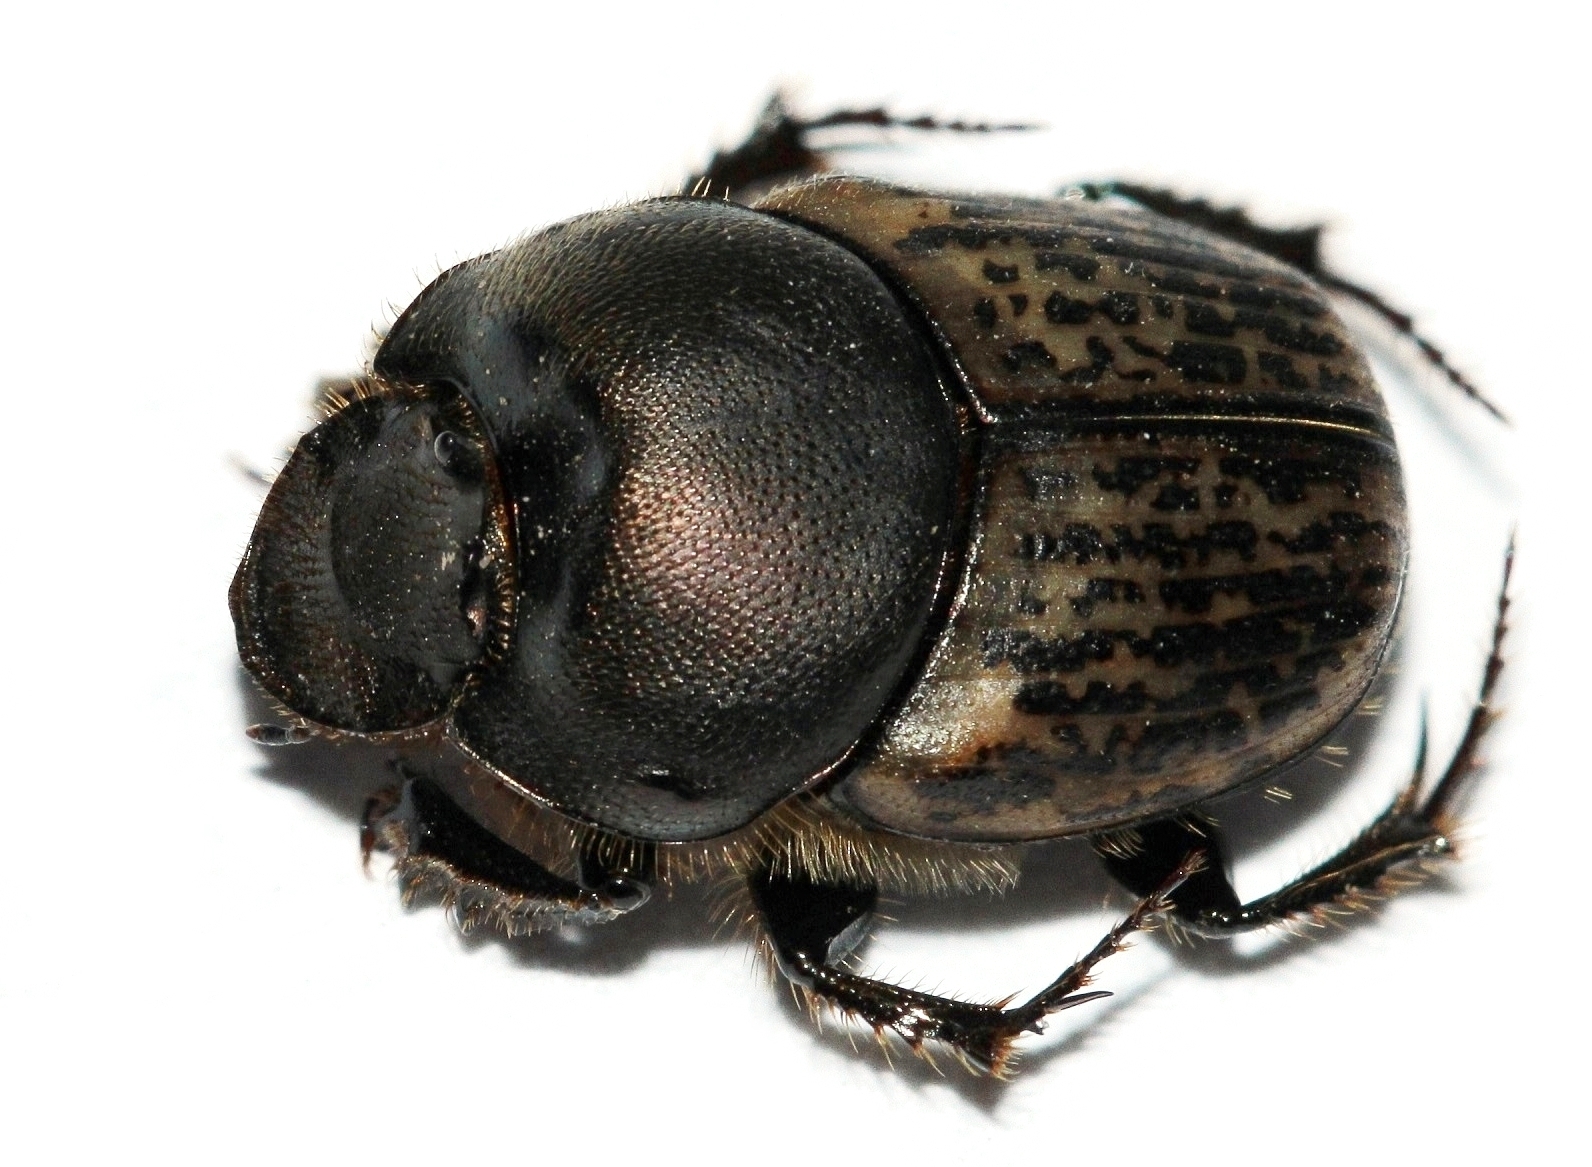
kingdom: Animalia
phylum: Arthropoda
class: Insecta
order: Coleoptera
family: Scarabaeidae
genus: Onthophagus
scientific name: Onthophagus vacca
